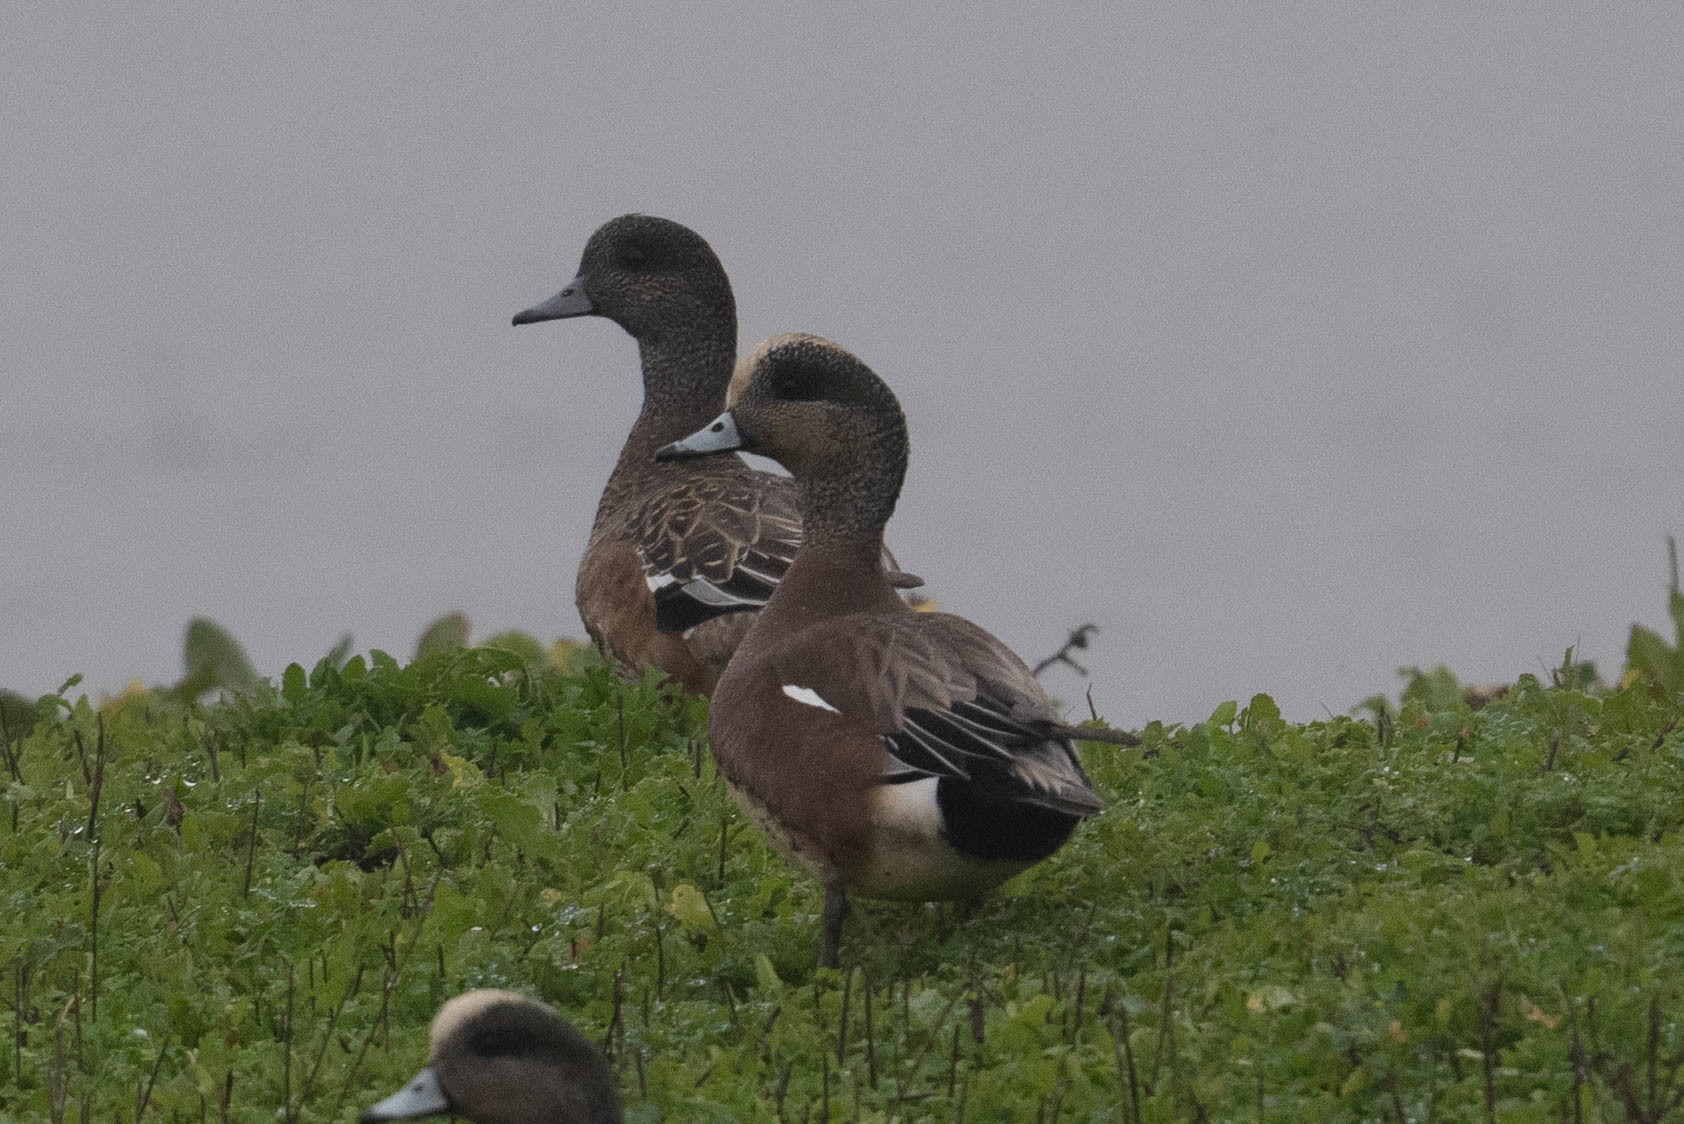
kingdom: Animalia
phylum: Chordata
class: Aves
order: Anseriformes
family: Anatidae
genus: Mareca
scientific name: Mareca americana
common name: American wigeon
